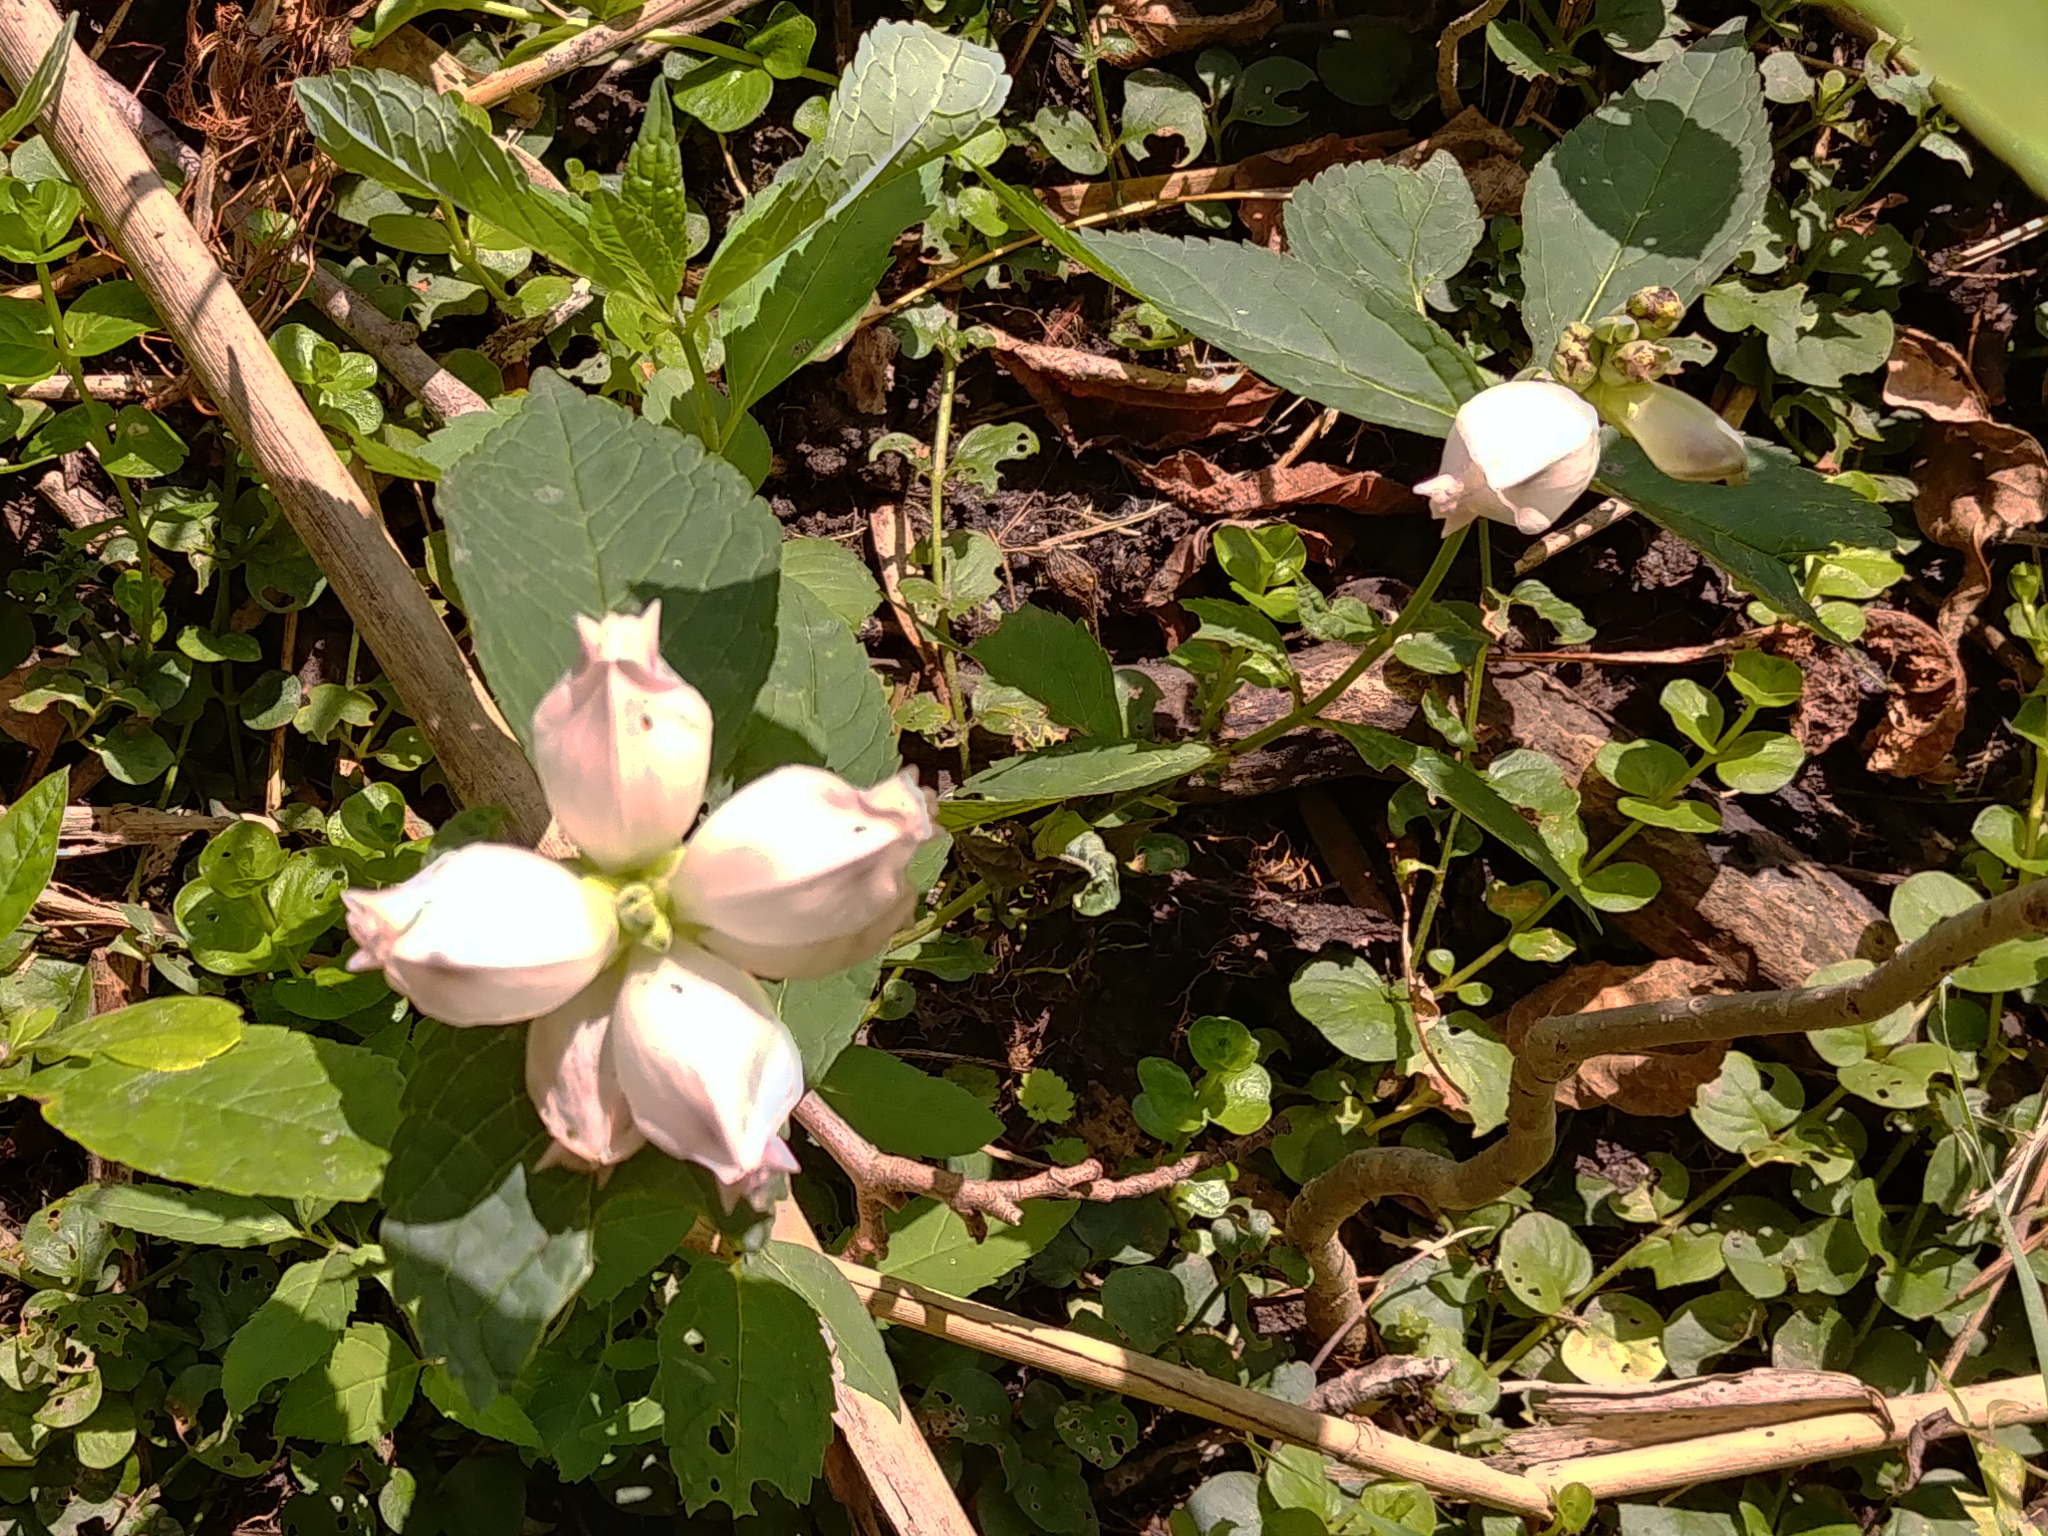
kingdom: Plantae
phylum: Tracheophyta
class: Magnoliopsida
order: Lamiales
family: Plantaginaceae
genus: Chelone
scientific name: Chelone glabra
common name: Snakehead
